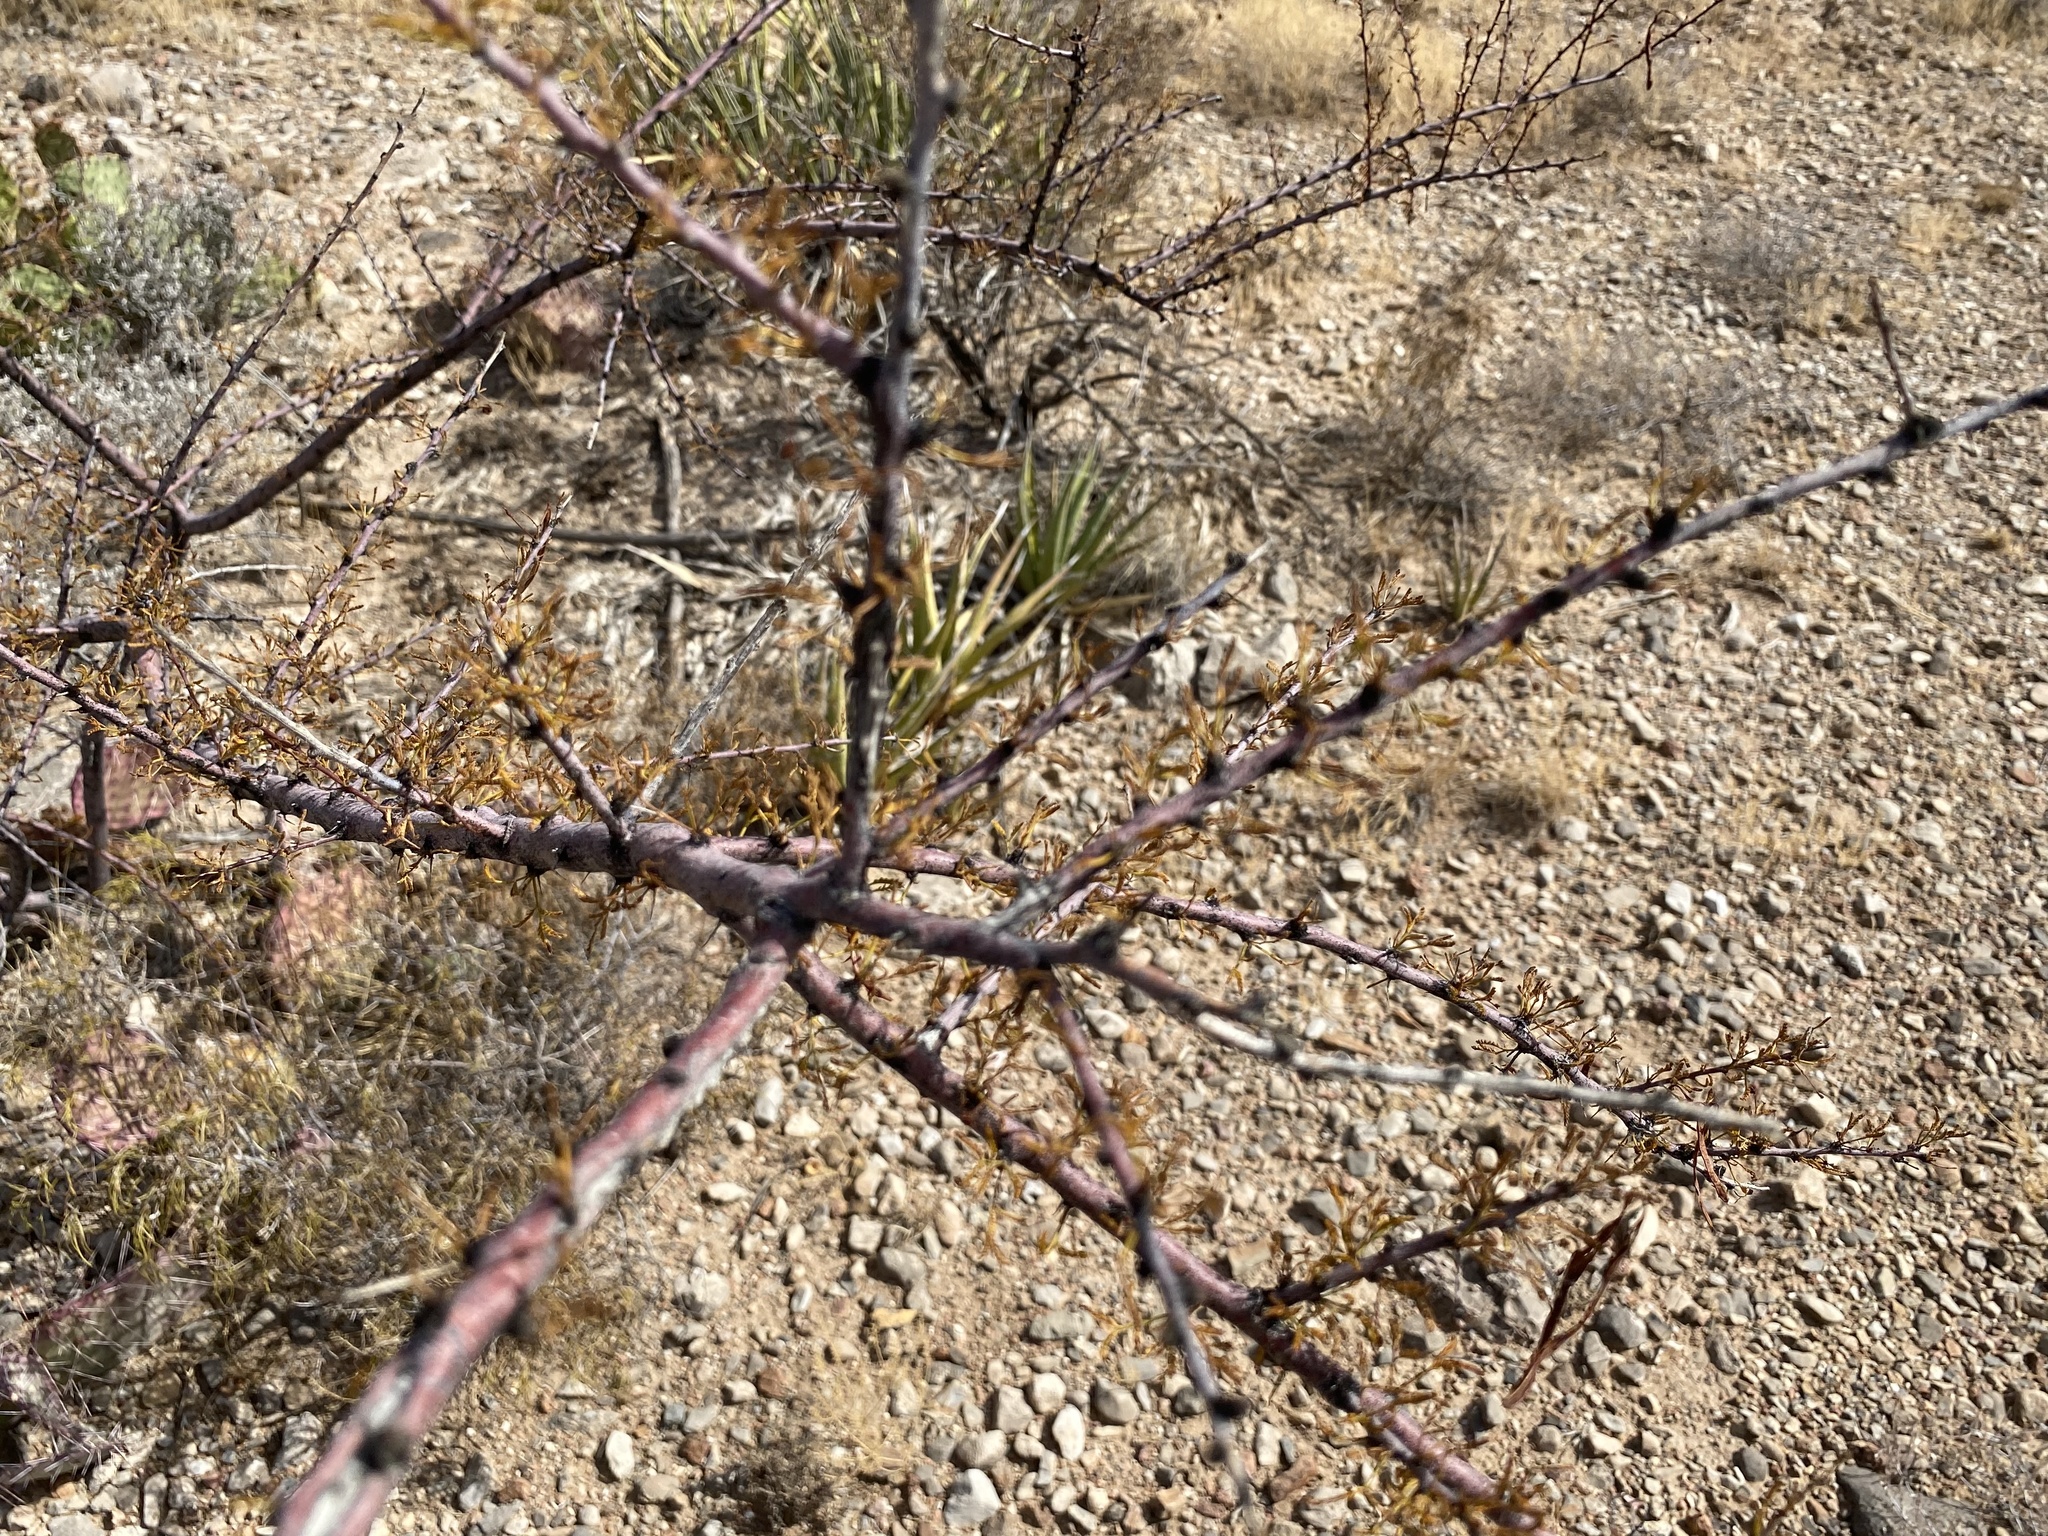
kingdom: Plantae
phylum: Tracheophyta
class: Magnoliopsida
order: Fabales
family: Fabaceae
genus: Vachellia
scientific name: Vachellia constricta
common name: Mescat acacia
